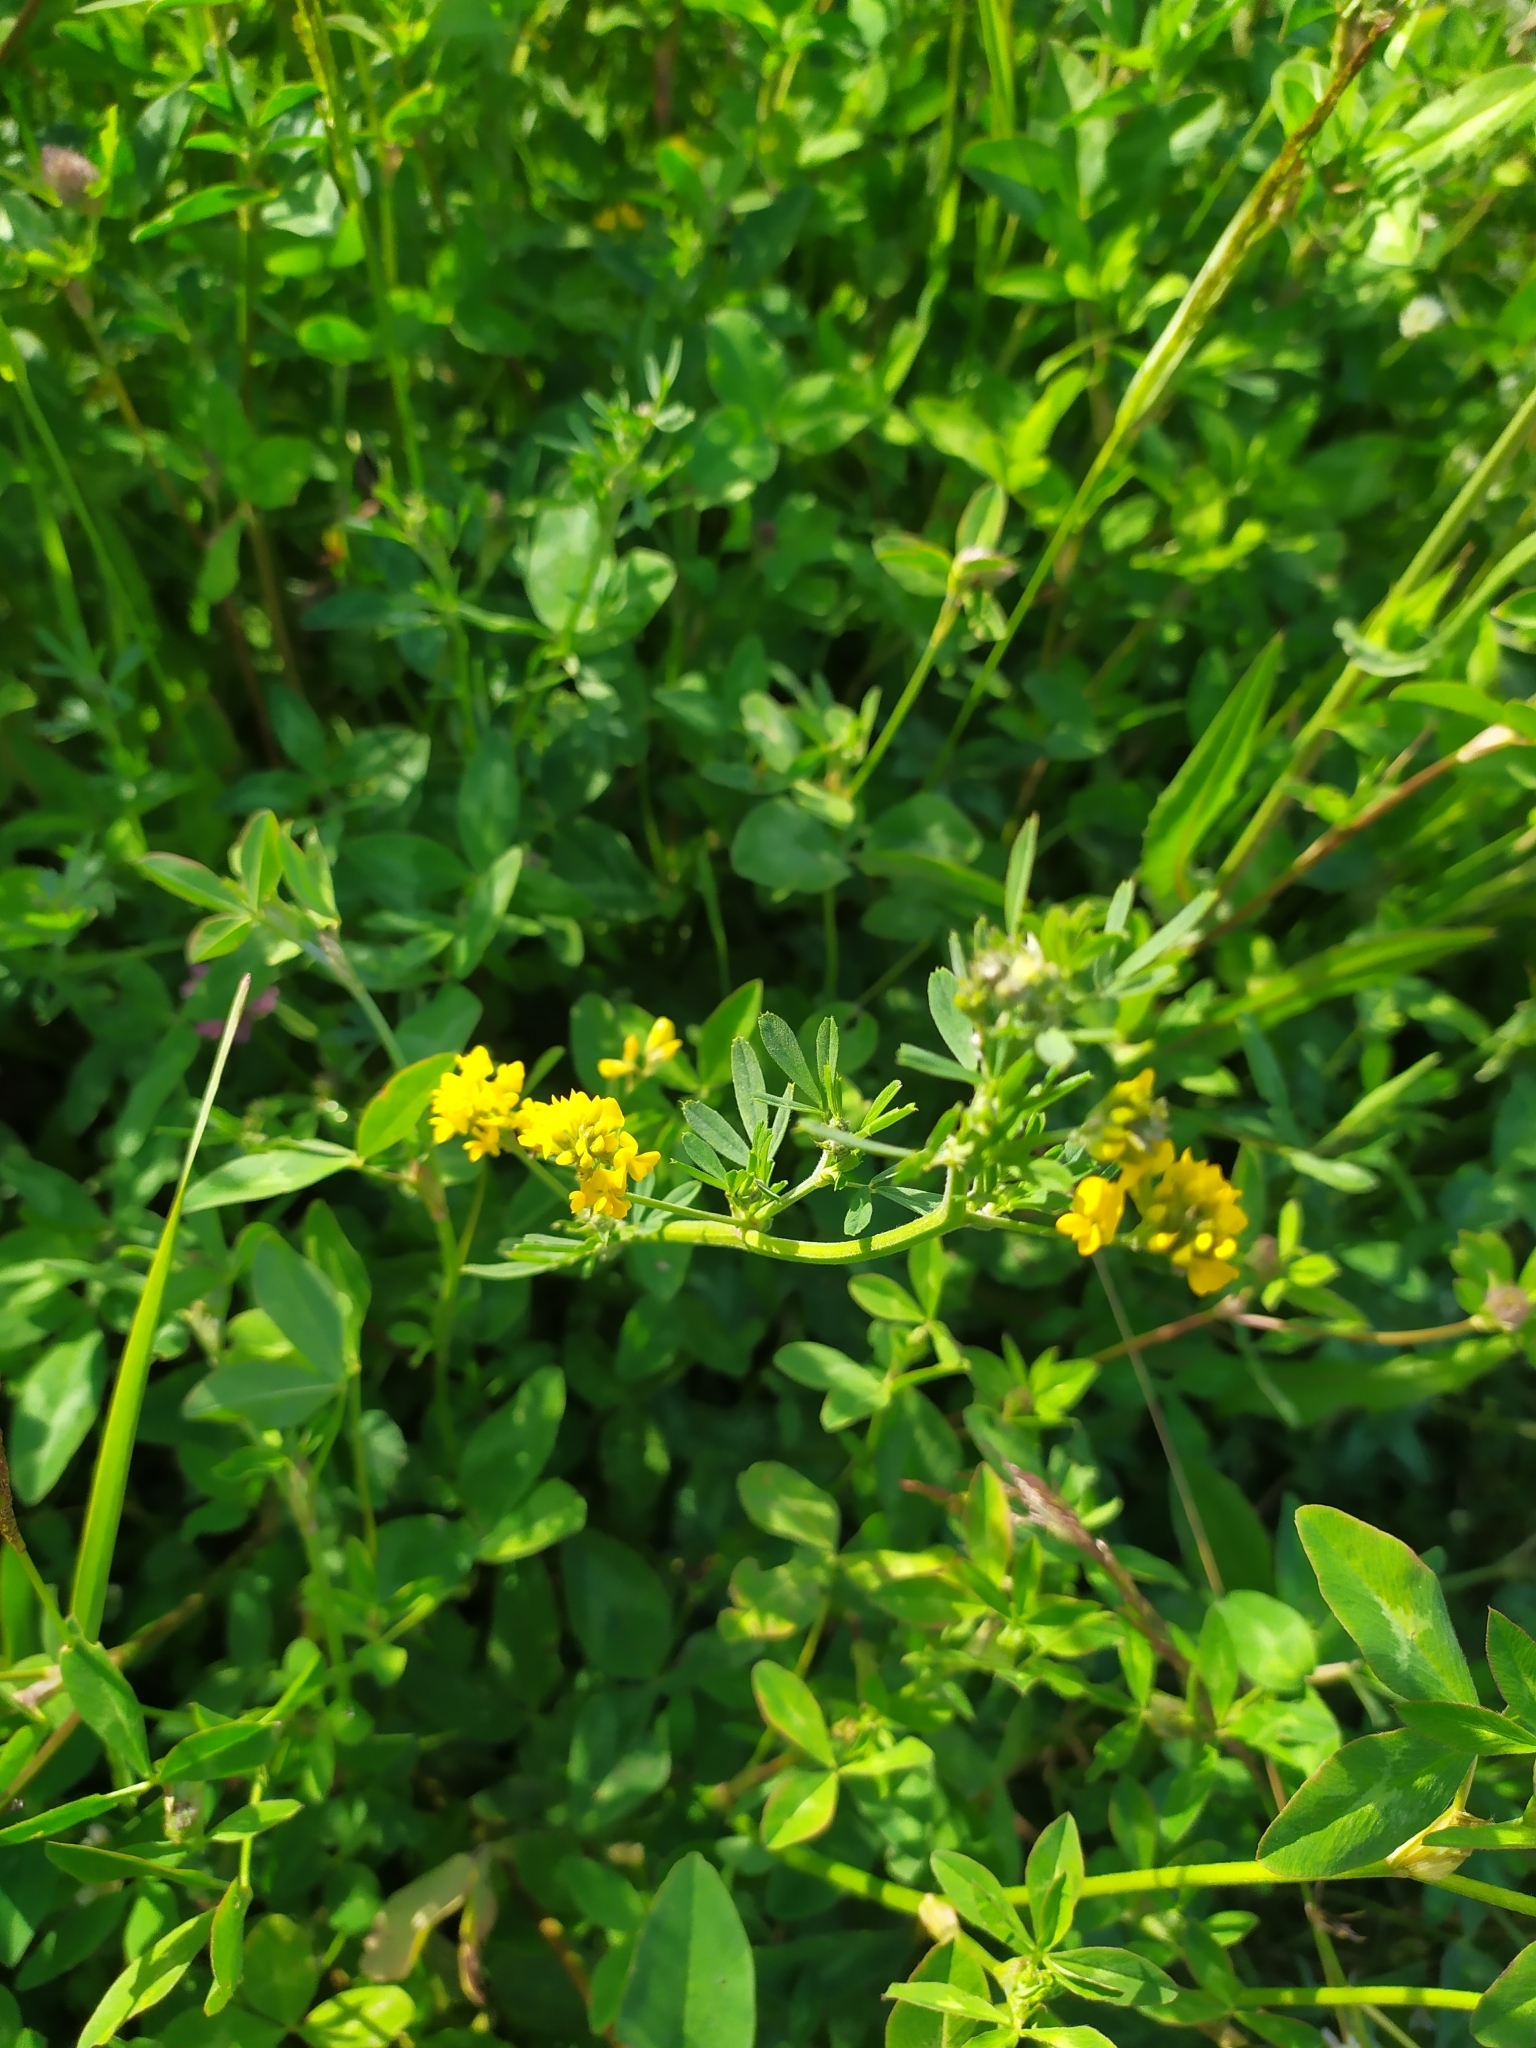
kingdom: Plantae
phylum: Tracheophyta
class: Magnoliopsida
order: Fabales
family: Fabaceae
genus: Medicago
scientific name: Medicago falcata
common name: Sickle medick
